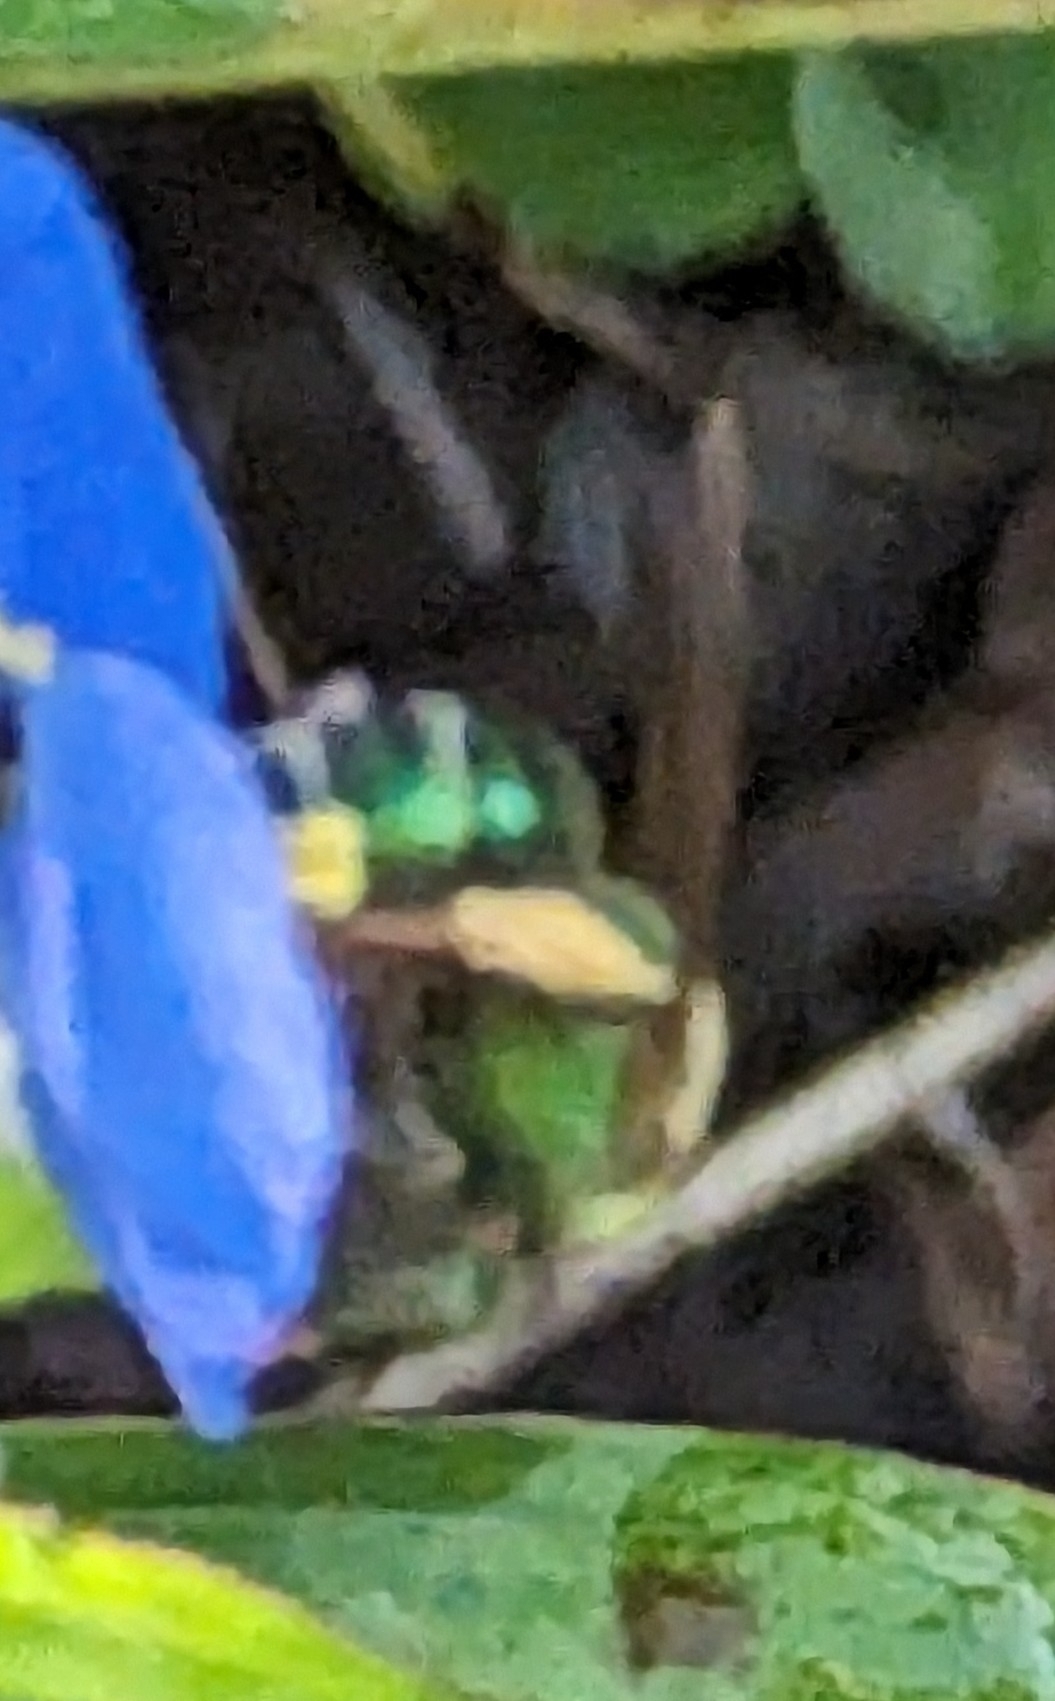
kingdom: Animalia
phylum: Arthropoda
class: Insecta
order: Hymenoptera
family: Halictidae
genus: Agapostemon
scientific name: Agapostemon splendens
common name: Brown-winged striped sweat bee
